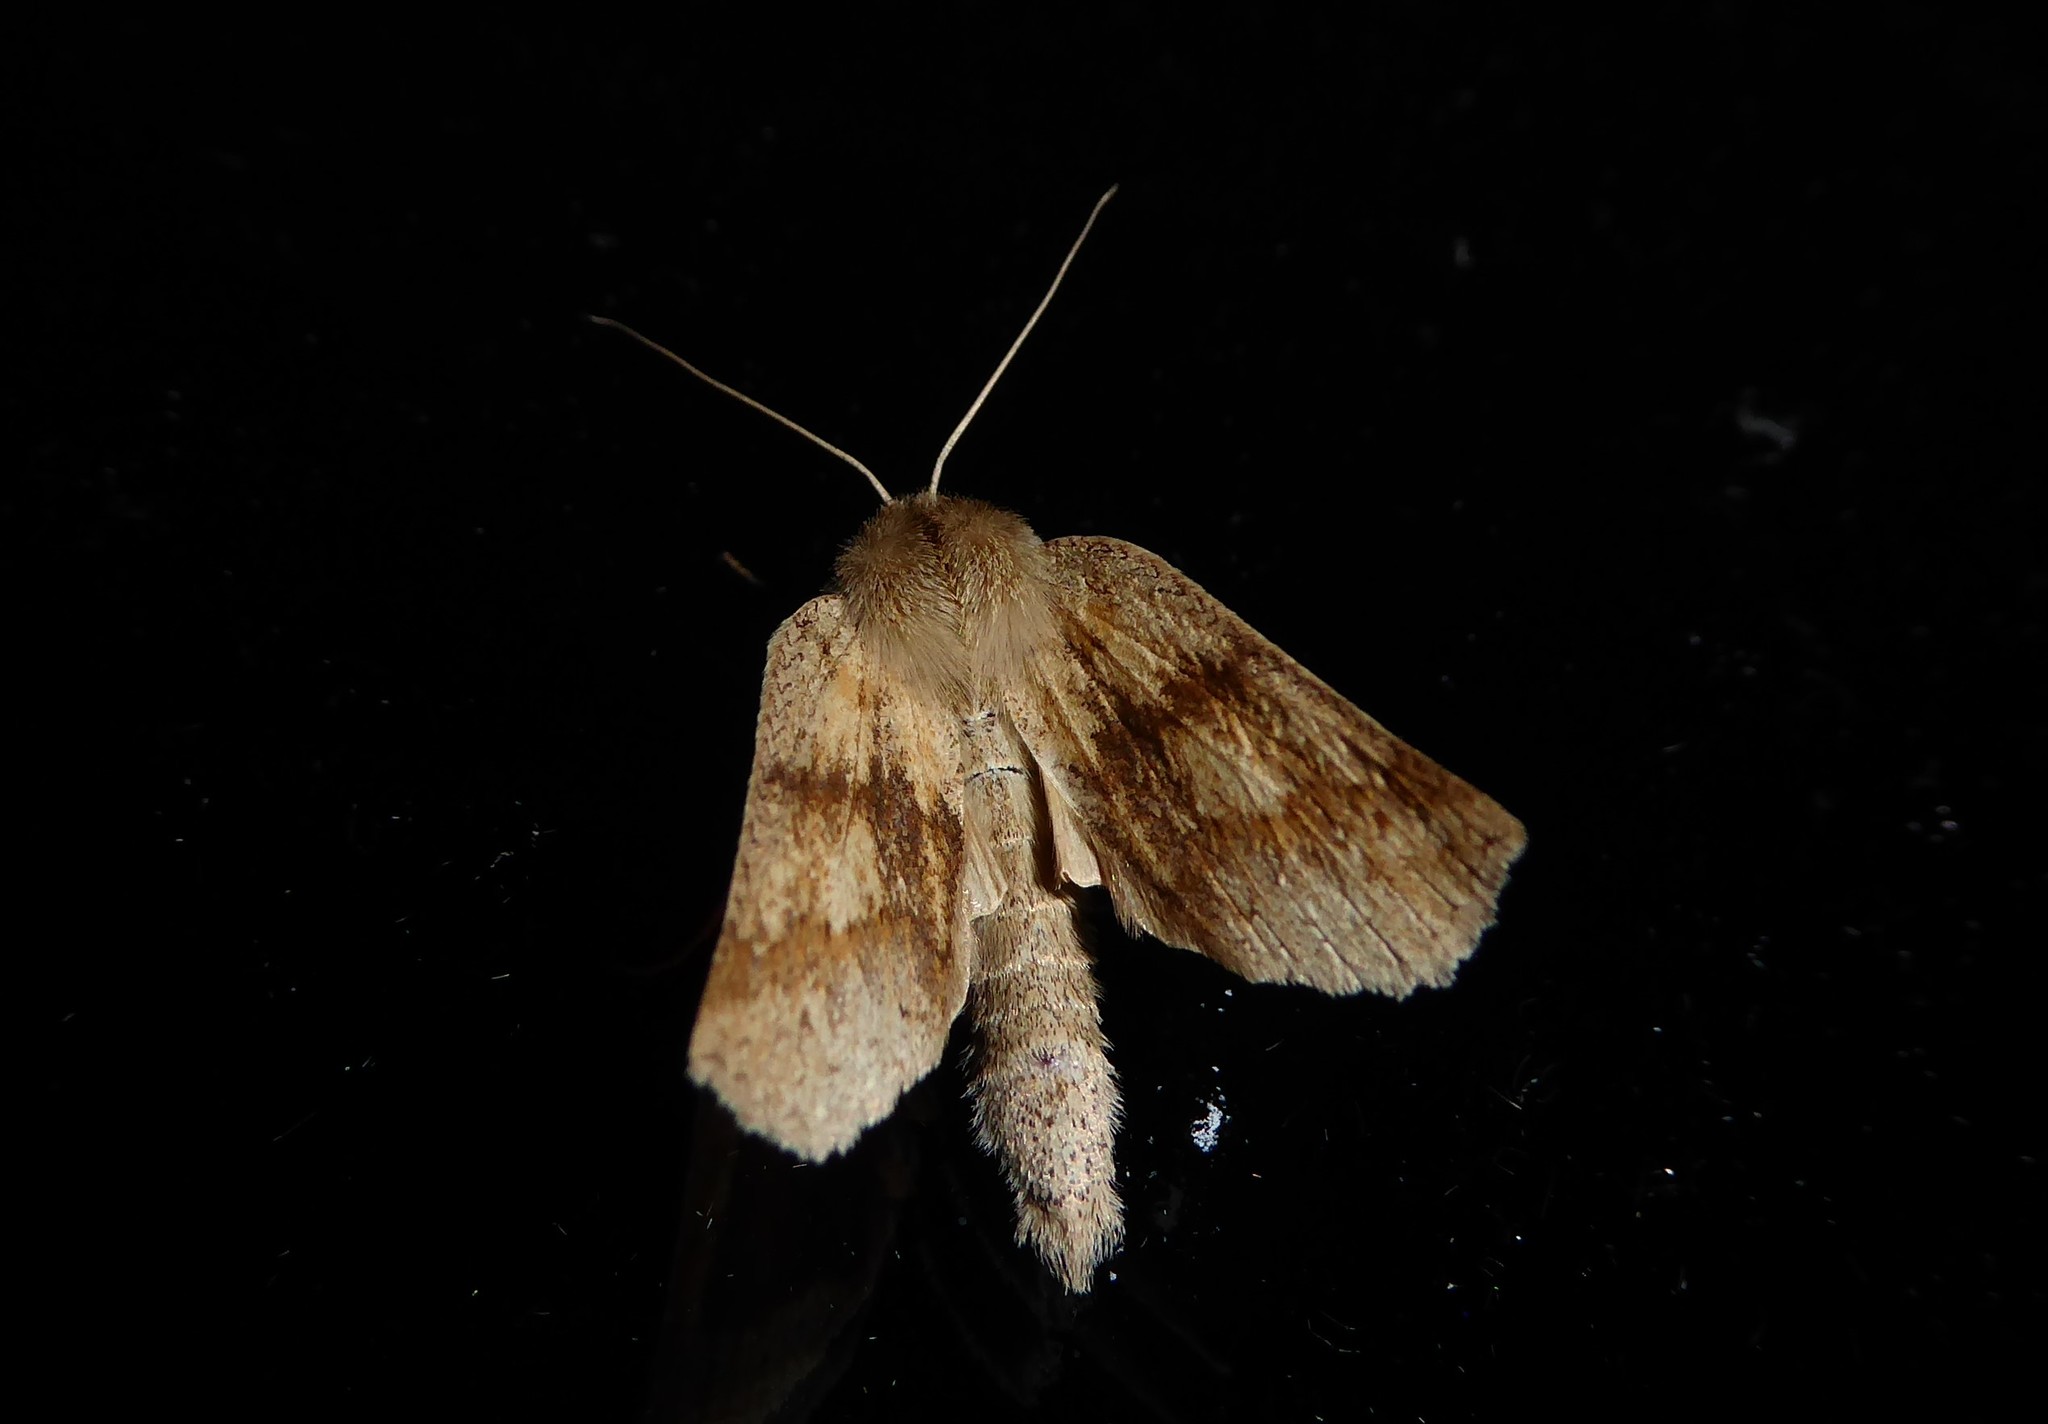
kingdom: Animalia
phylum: Arthropoda
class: Insecta
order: Lepidoptera
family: Geometridae
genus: Declana
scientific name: Declana leptomera
